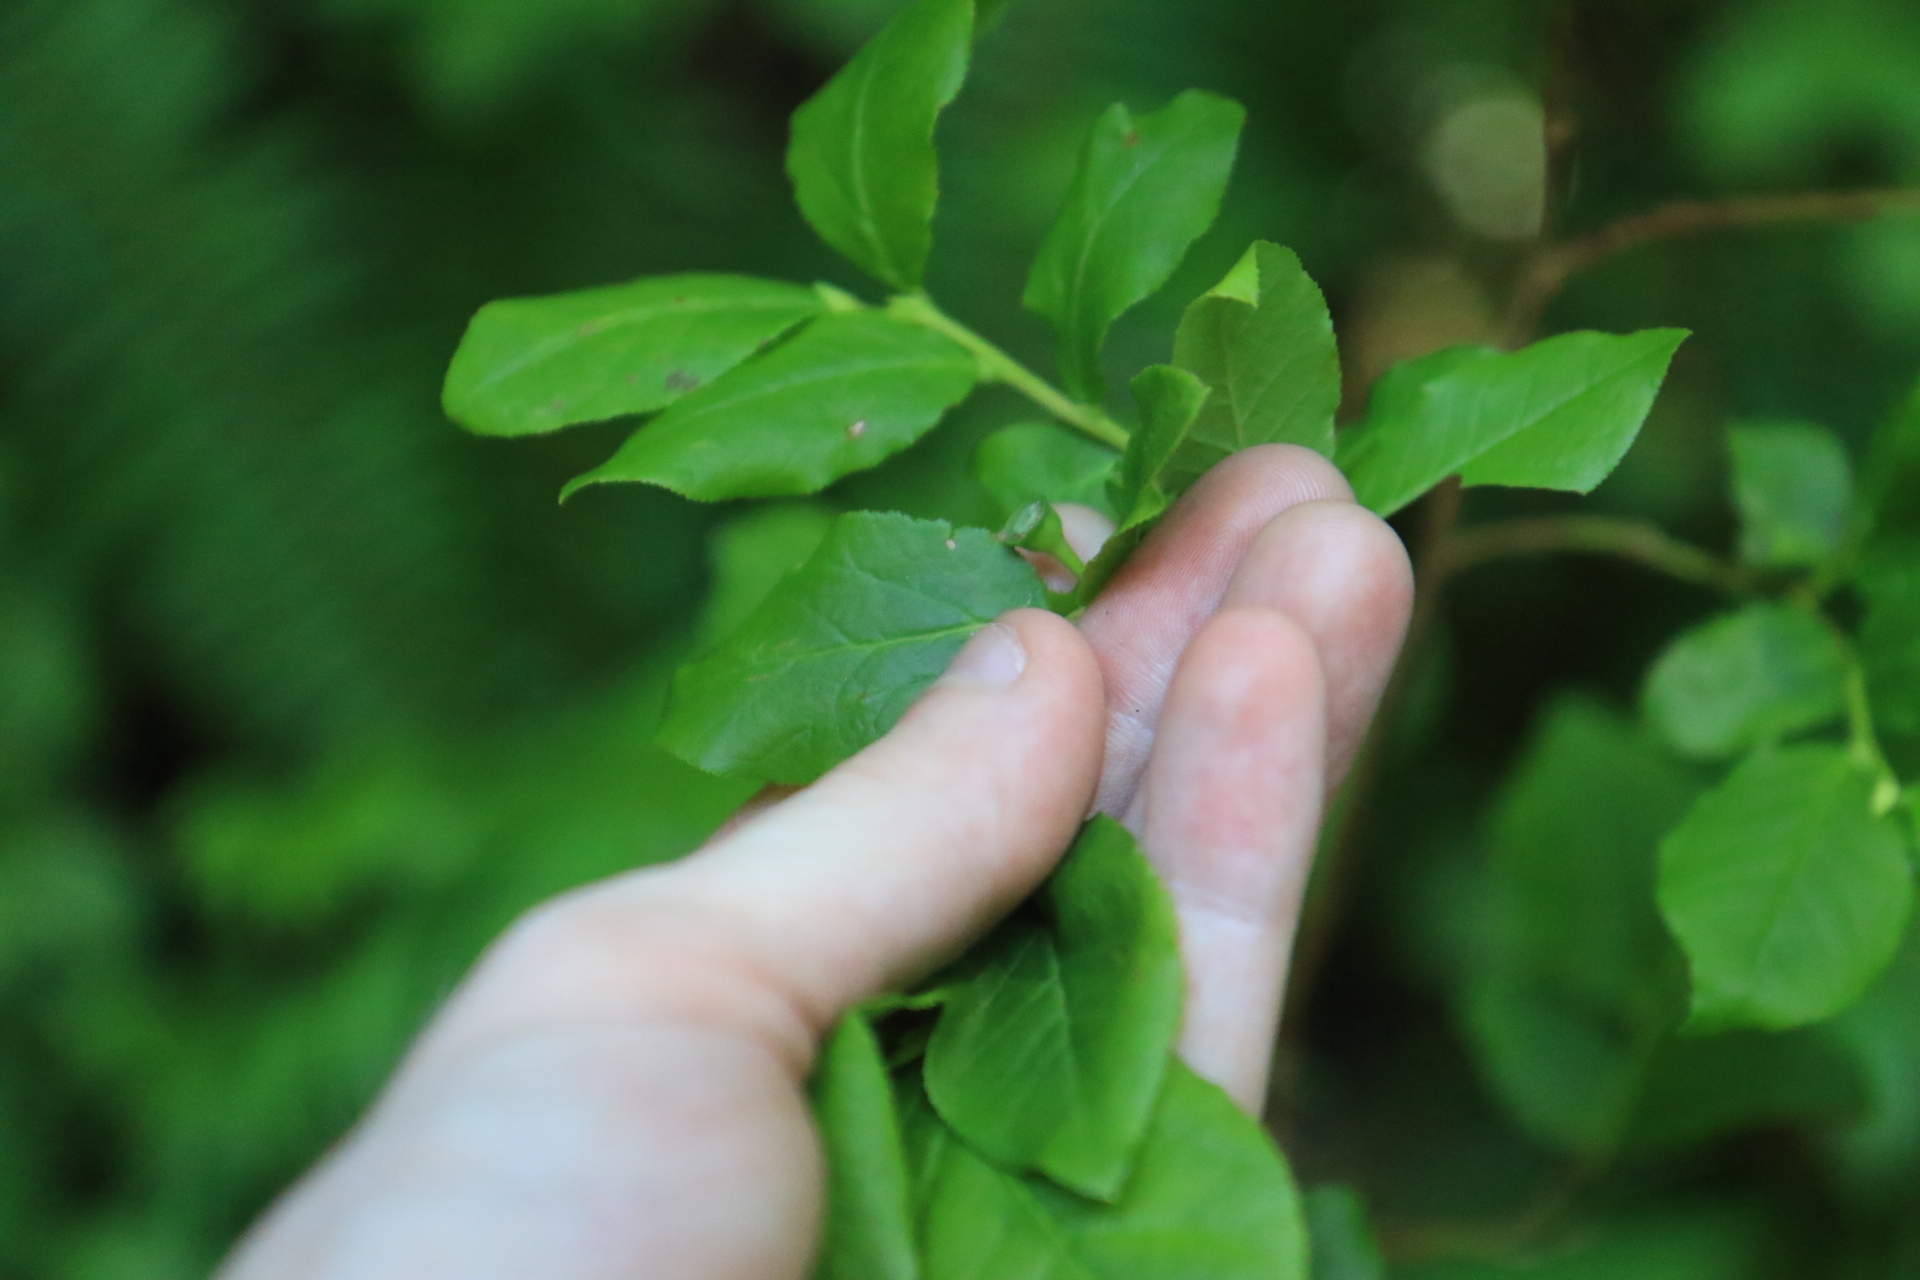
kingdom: Plantae
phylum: Tracheophyta
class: Magnoliopsida
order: Ericales
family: Ericaceae
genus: Vaccinium
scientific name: Vaccinium membranaceum
